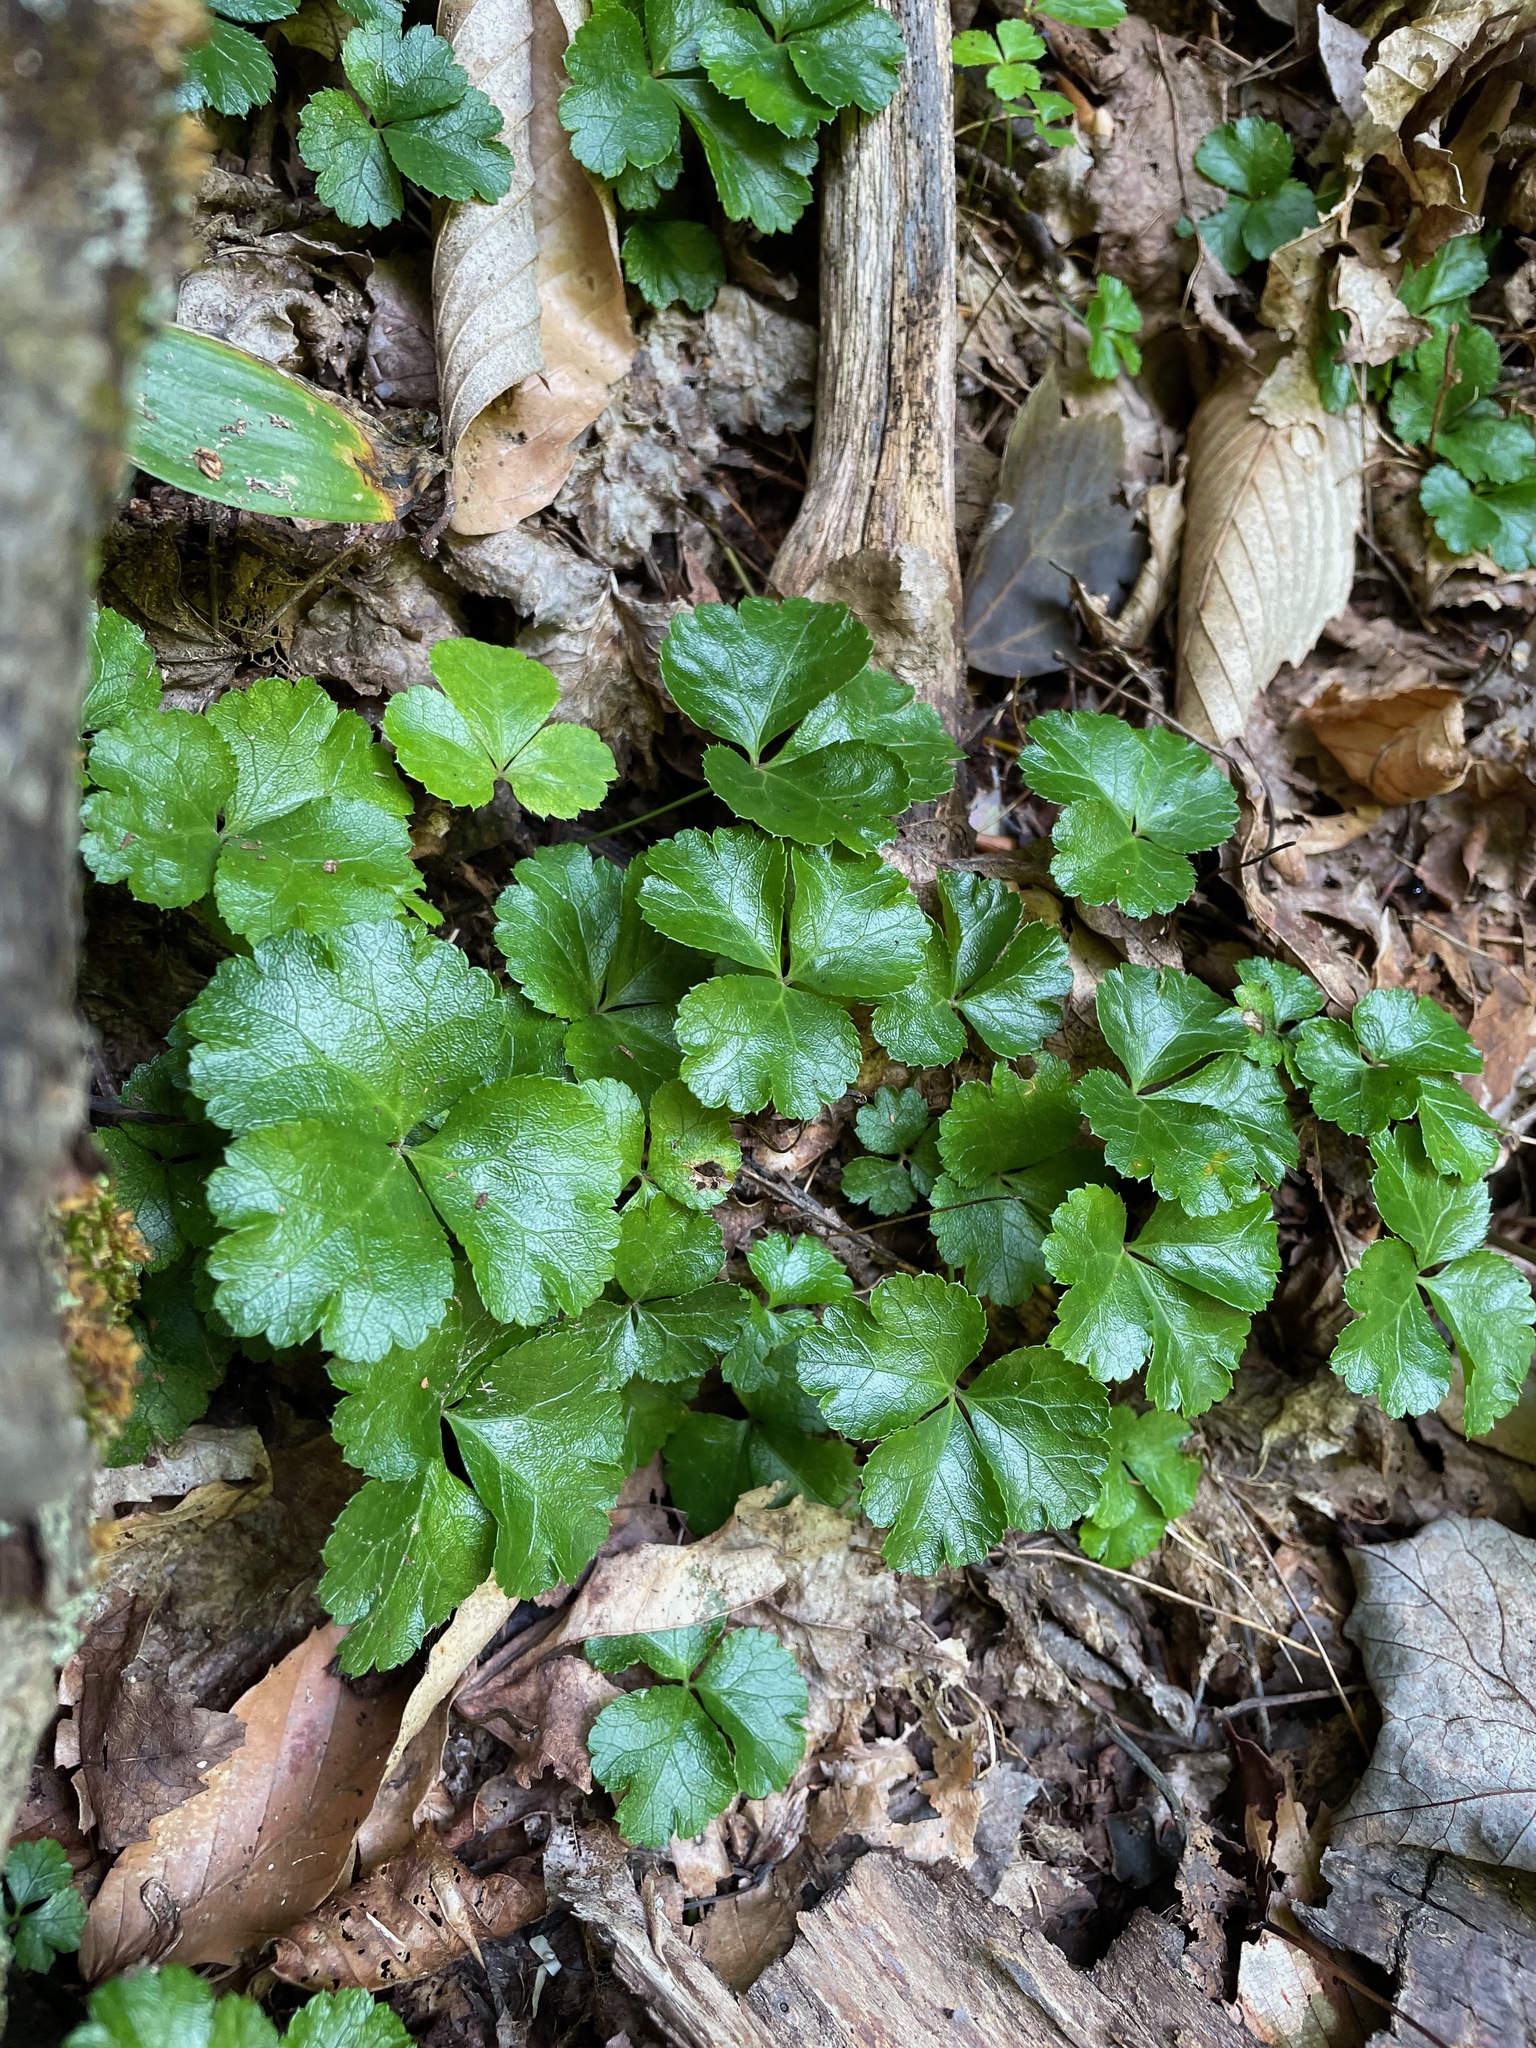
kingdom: Plantae
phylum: Tracheophyta
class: Magnoliopsida
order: Ranunculales
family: Ranunculaceae
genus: Coptis
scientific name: Coptis trifolia
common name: Canker-root
